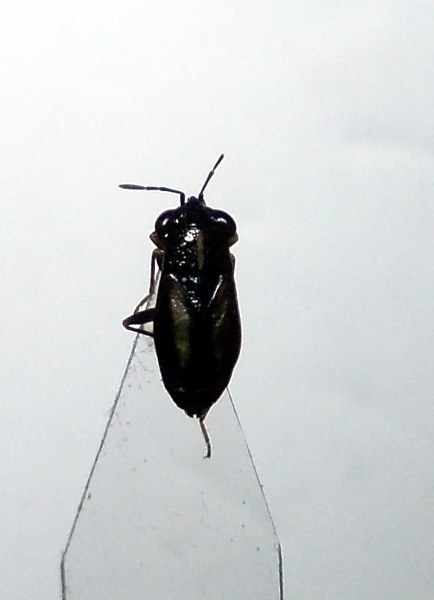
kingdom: Animalia
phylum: Arthropoda
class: Insecta
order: Hemiptera
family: Geocoridae
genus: Geocoris
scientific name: Geocoris ater
